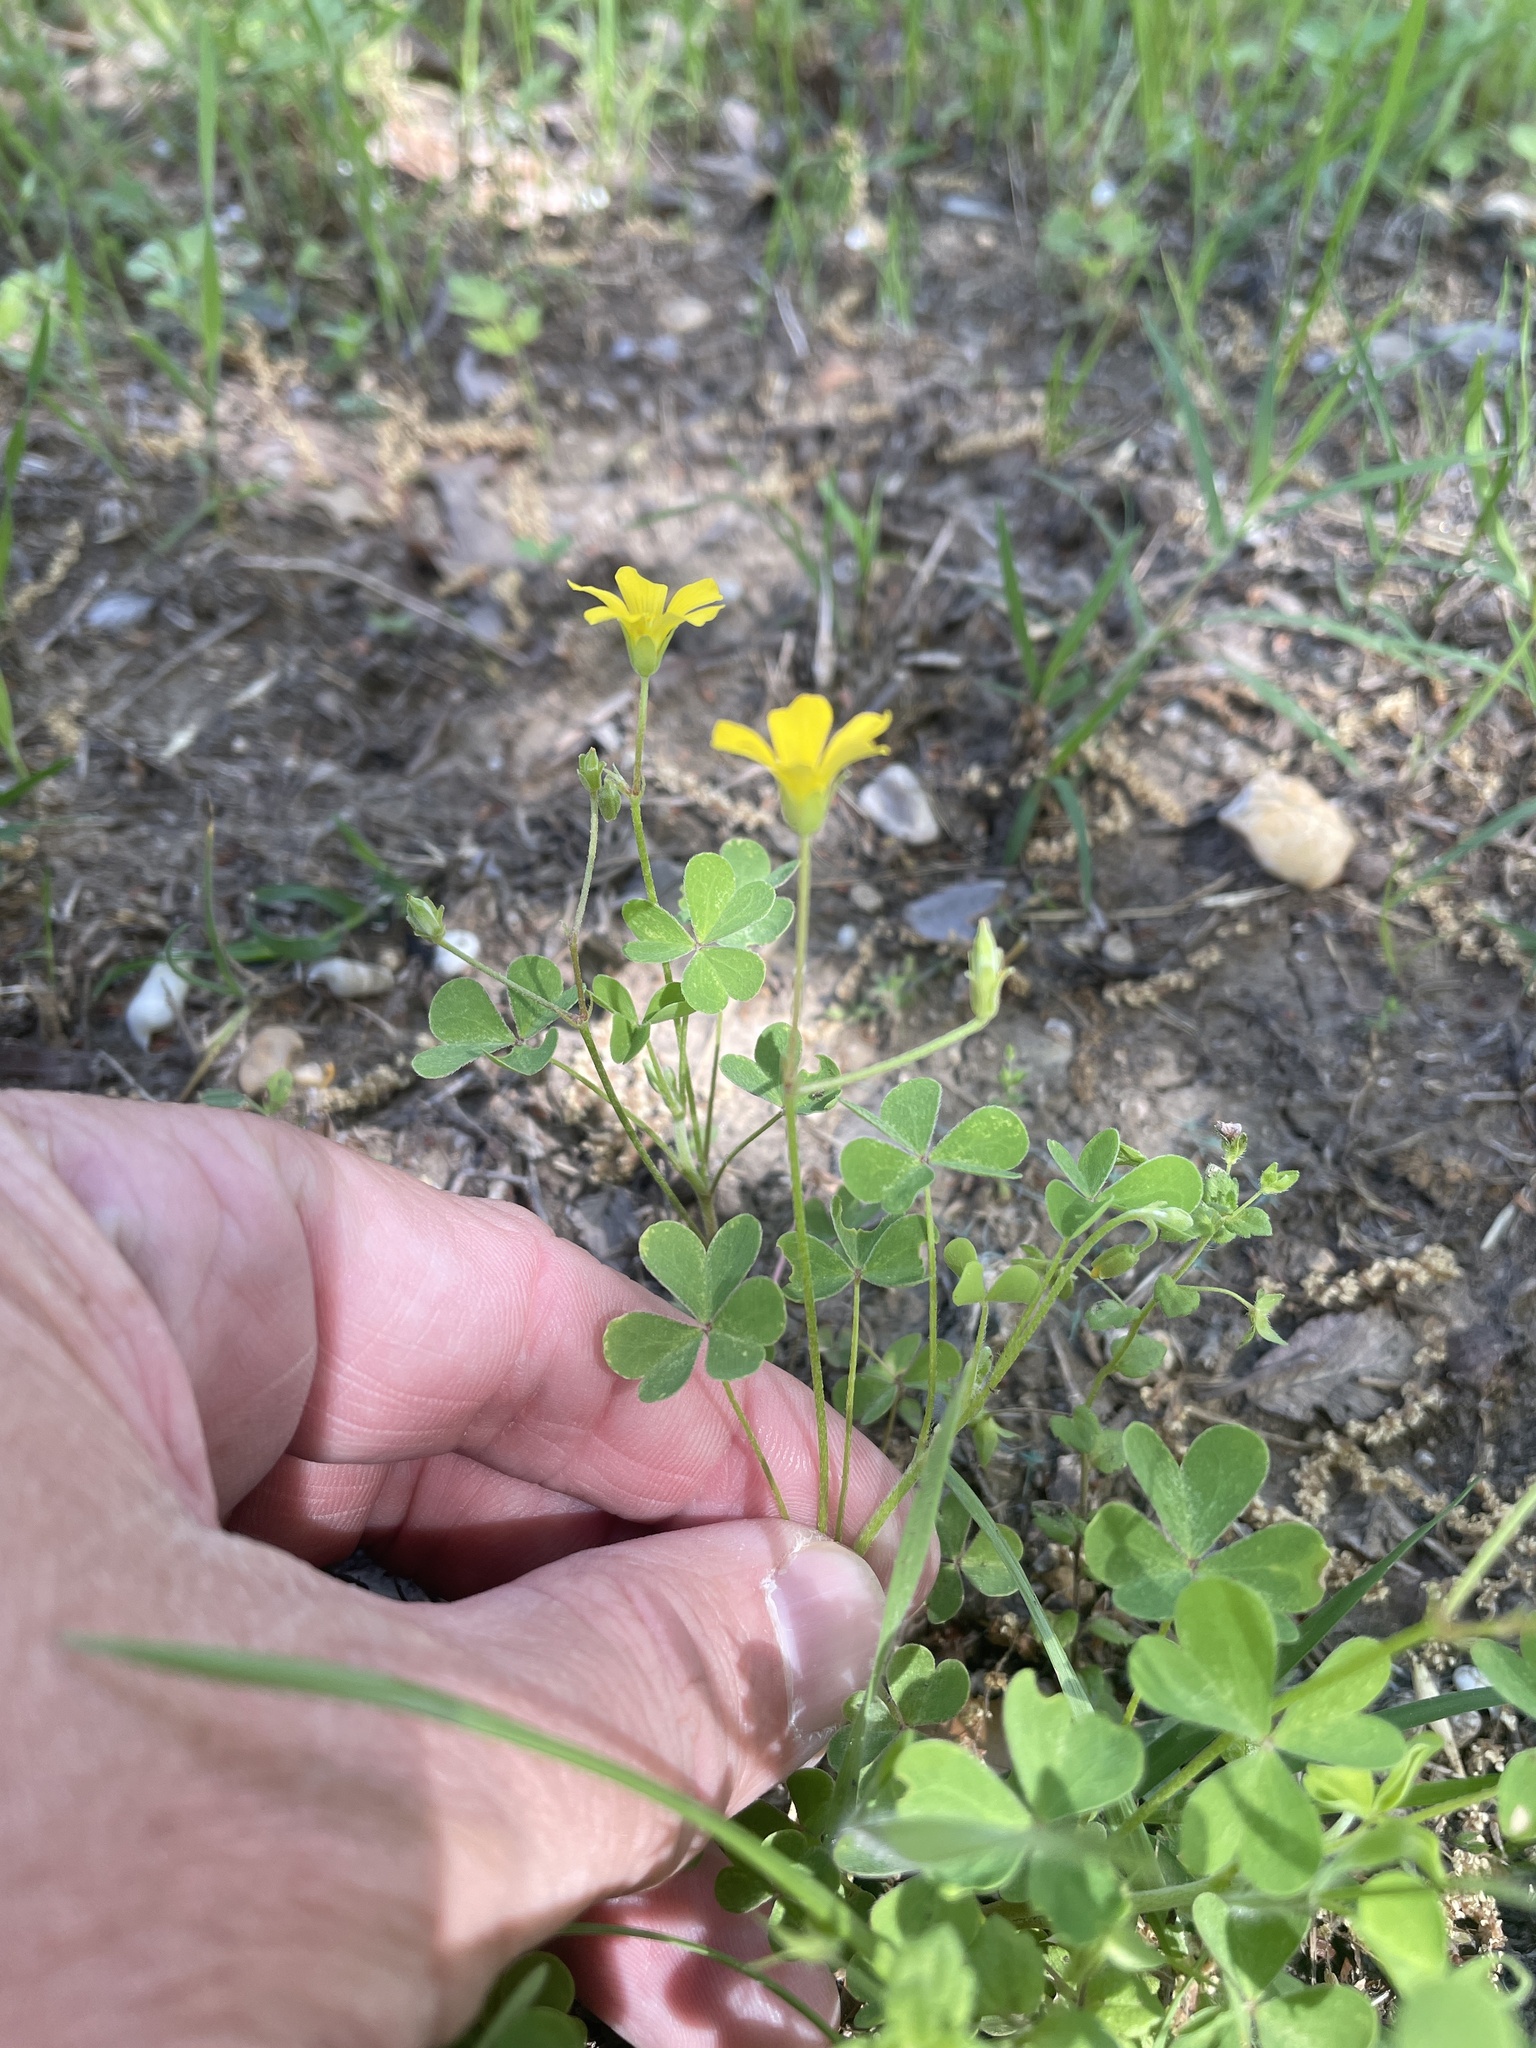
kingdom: Plantae
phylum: Tracheophyta
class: Magnoliopsida
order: Oxalidales
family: Oxalidaceae
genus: Oxalis
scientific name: Oxalis dillenii
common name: Sussex yellow-sorrel
